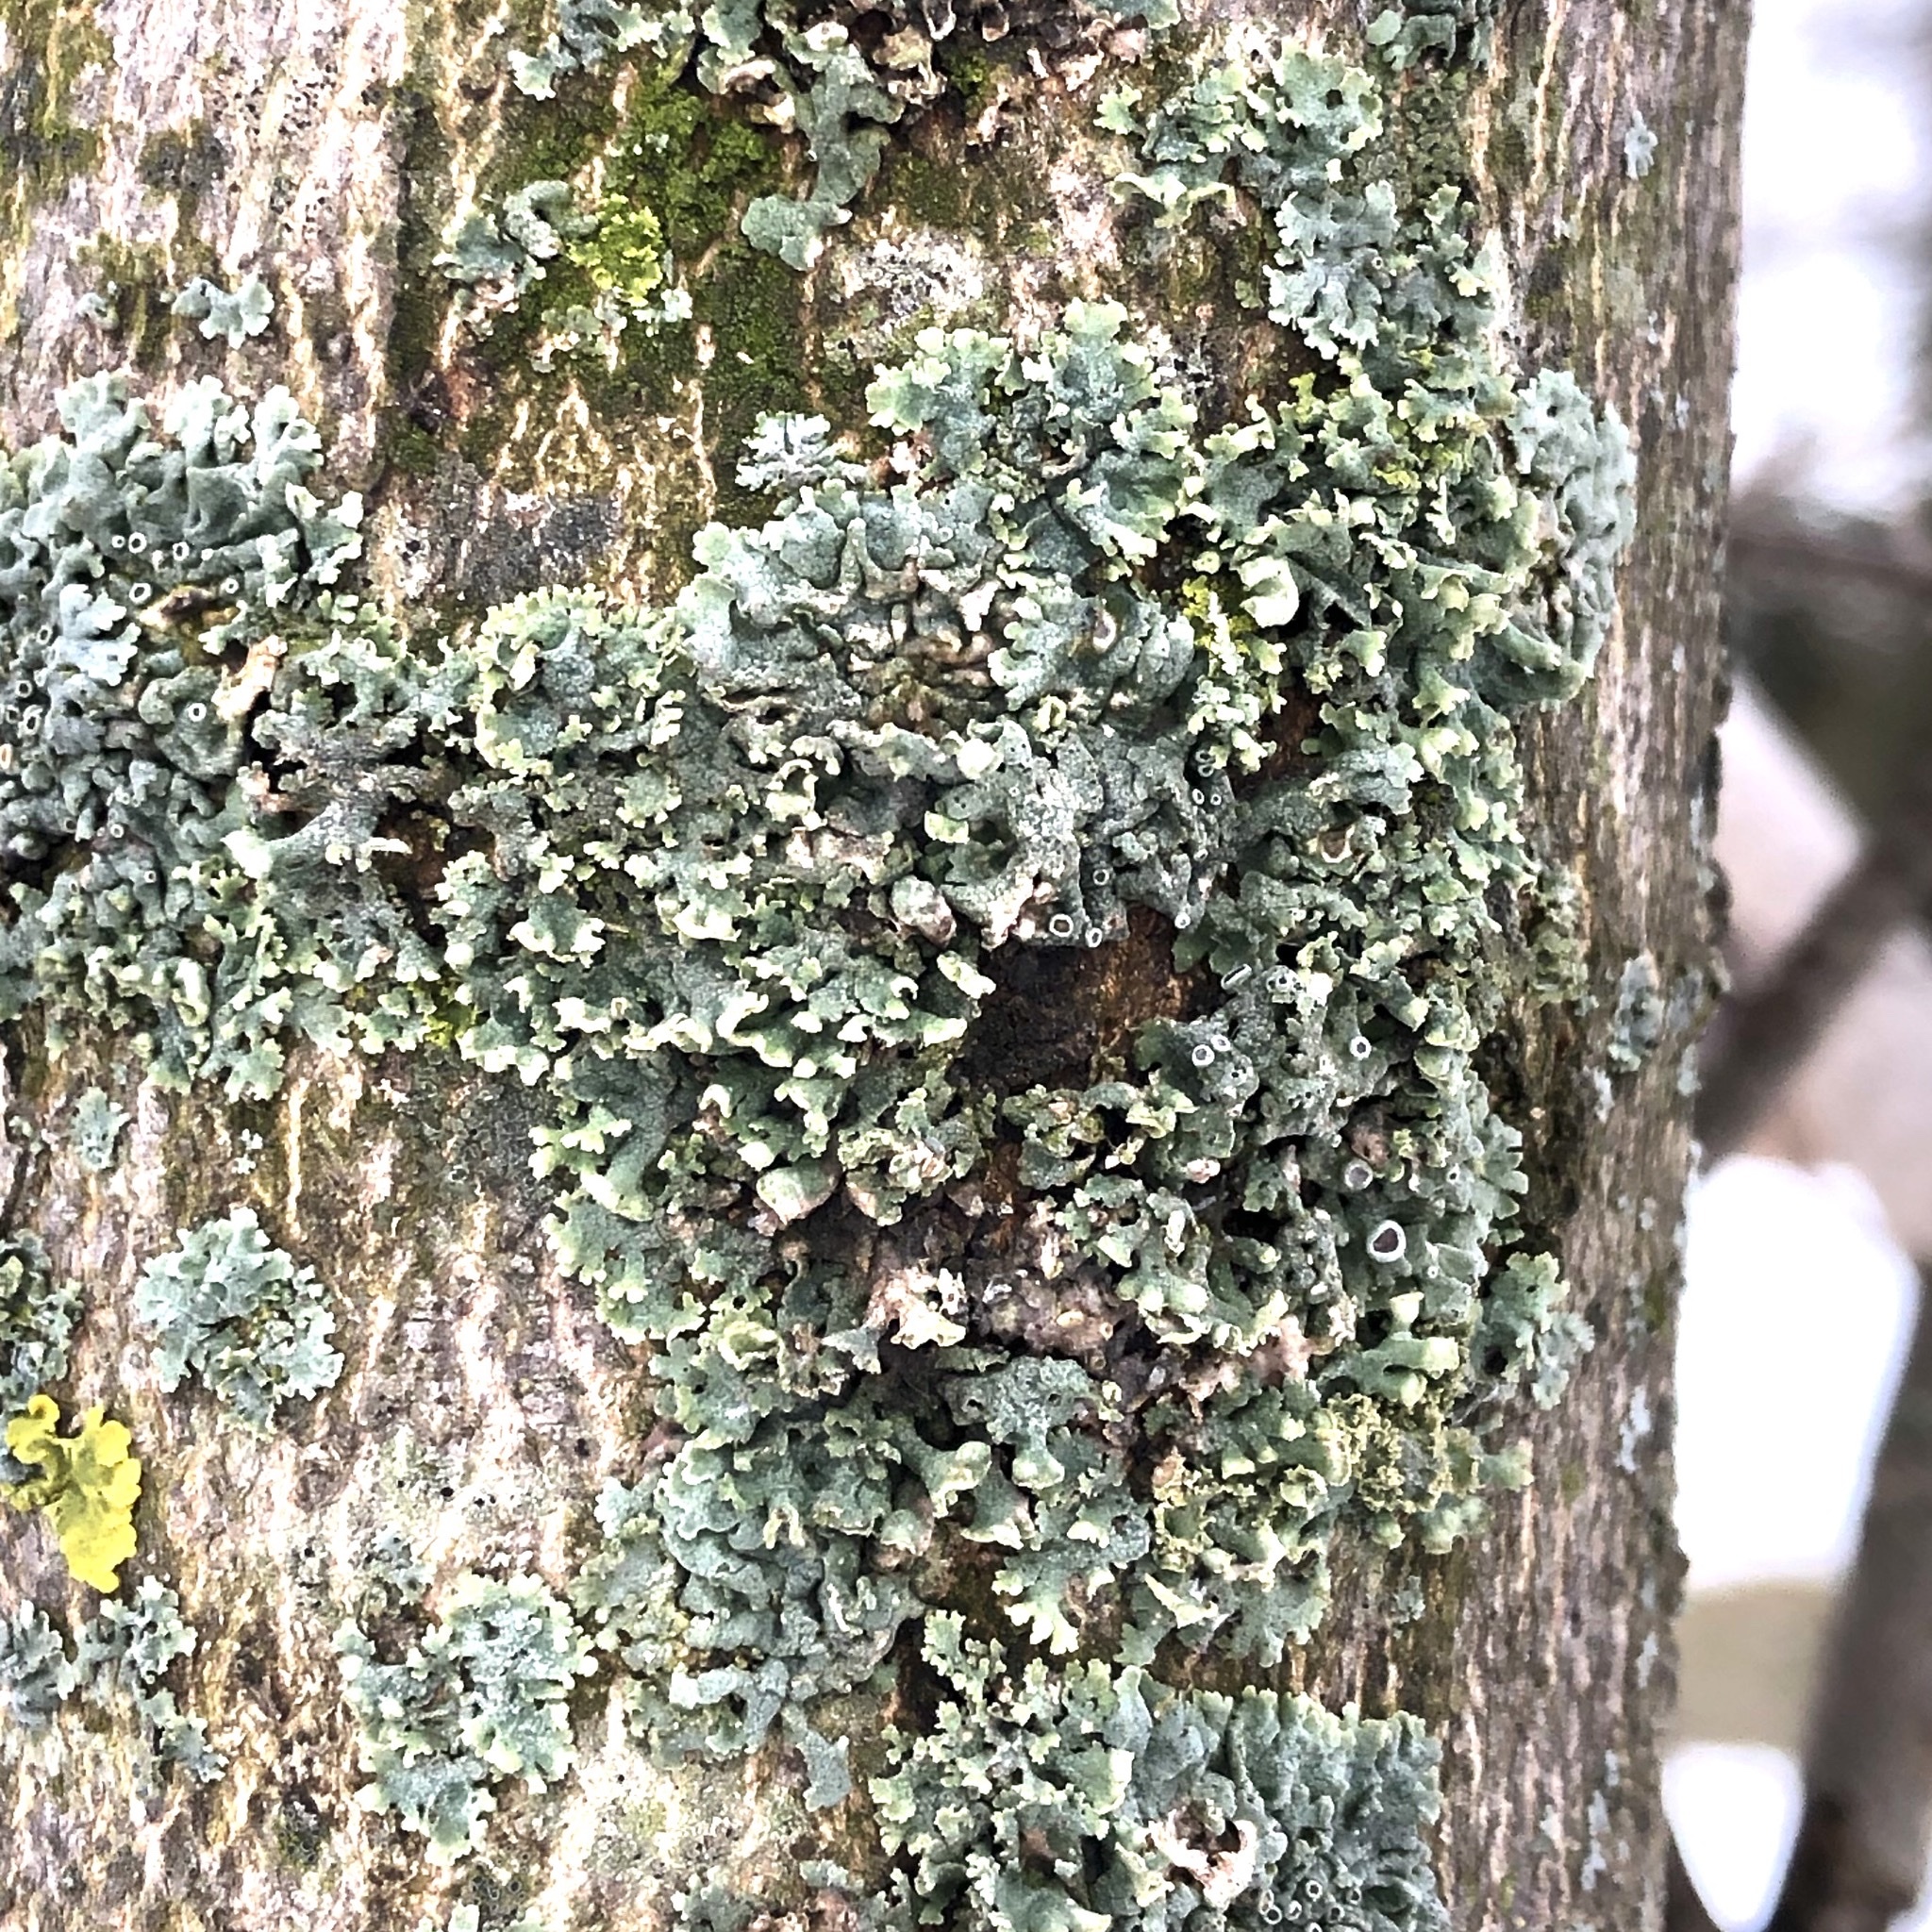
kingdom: Fungi
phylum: Ascomycota
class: Lecanoromycetes
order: Caliciales
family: Physciaceae
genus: Physcia
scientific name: Physcia aipolia
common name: Hoary rosette lichen
